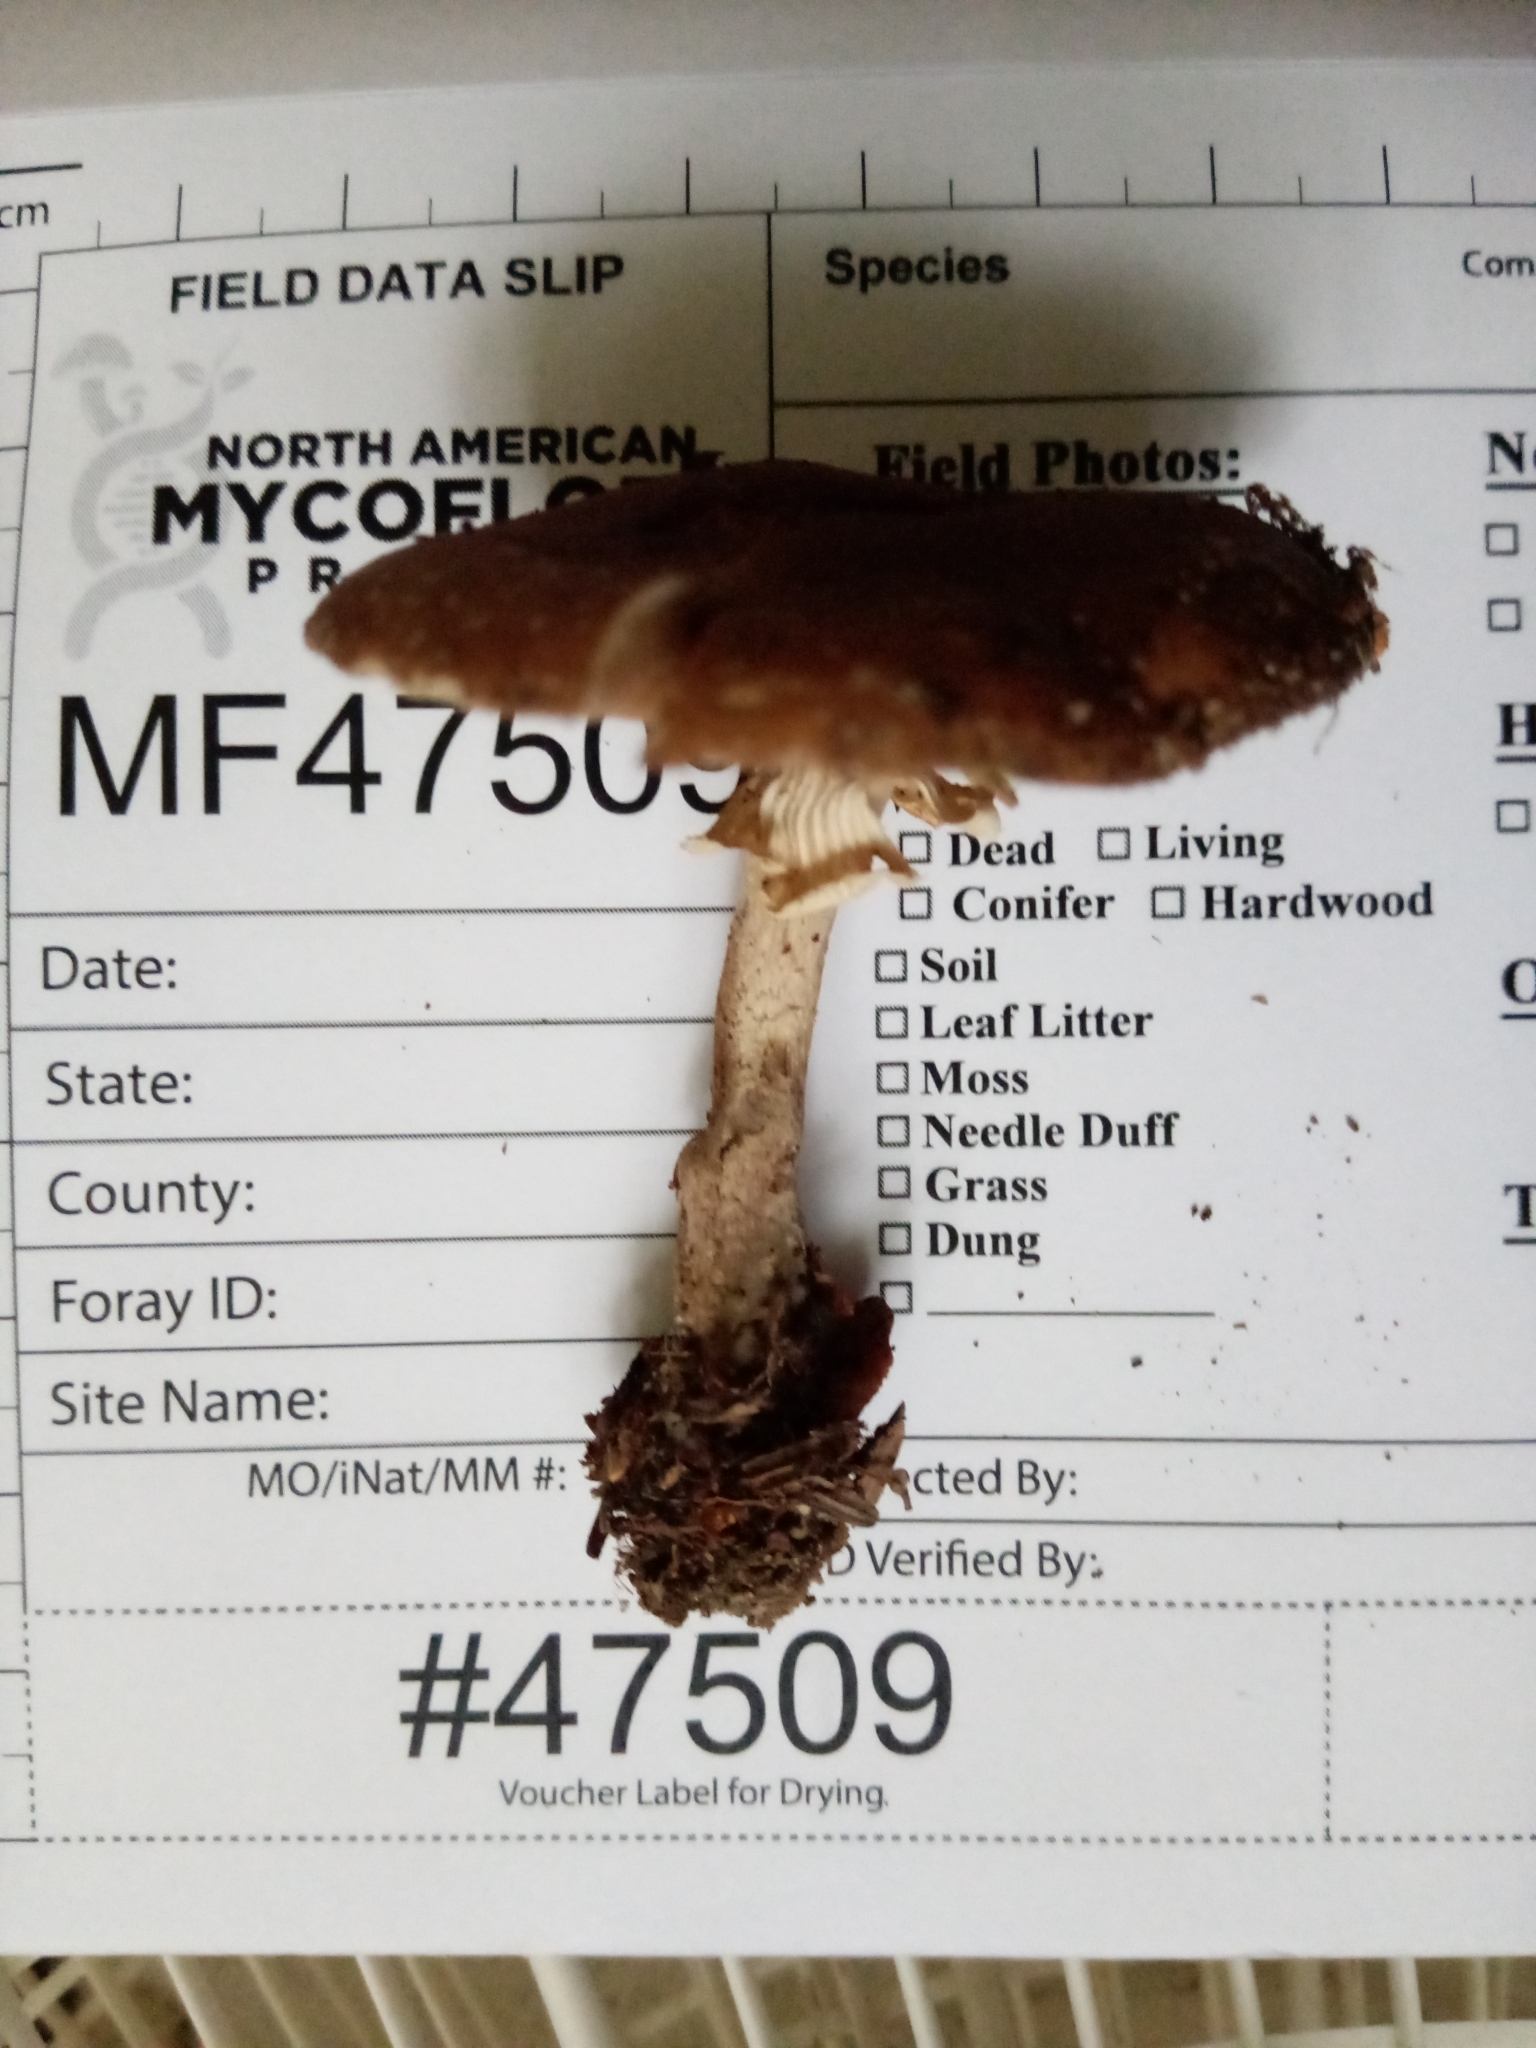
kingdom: Fungi
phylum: Basidiomycota
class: Agaricomycetes
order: Agaricales
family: Tubariaceae
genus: Cyclocybe
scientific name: Cyclocybe erebia
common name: Dark fieldcap
